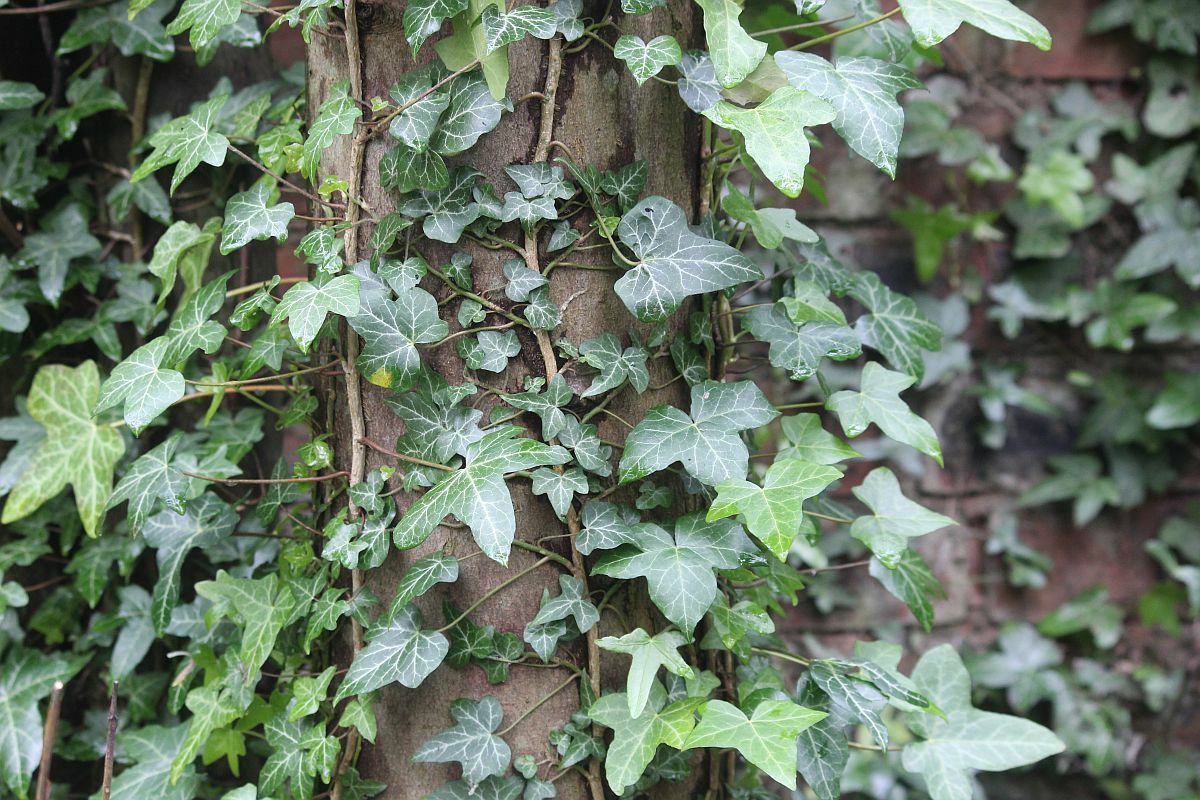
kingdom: Plantae
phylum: Tracheophyta
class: Magnoliopsida
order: Apiales
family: Araliaceae
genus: Hedera
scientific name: Hedera helix
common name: Ivy
